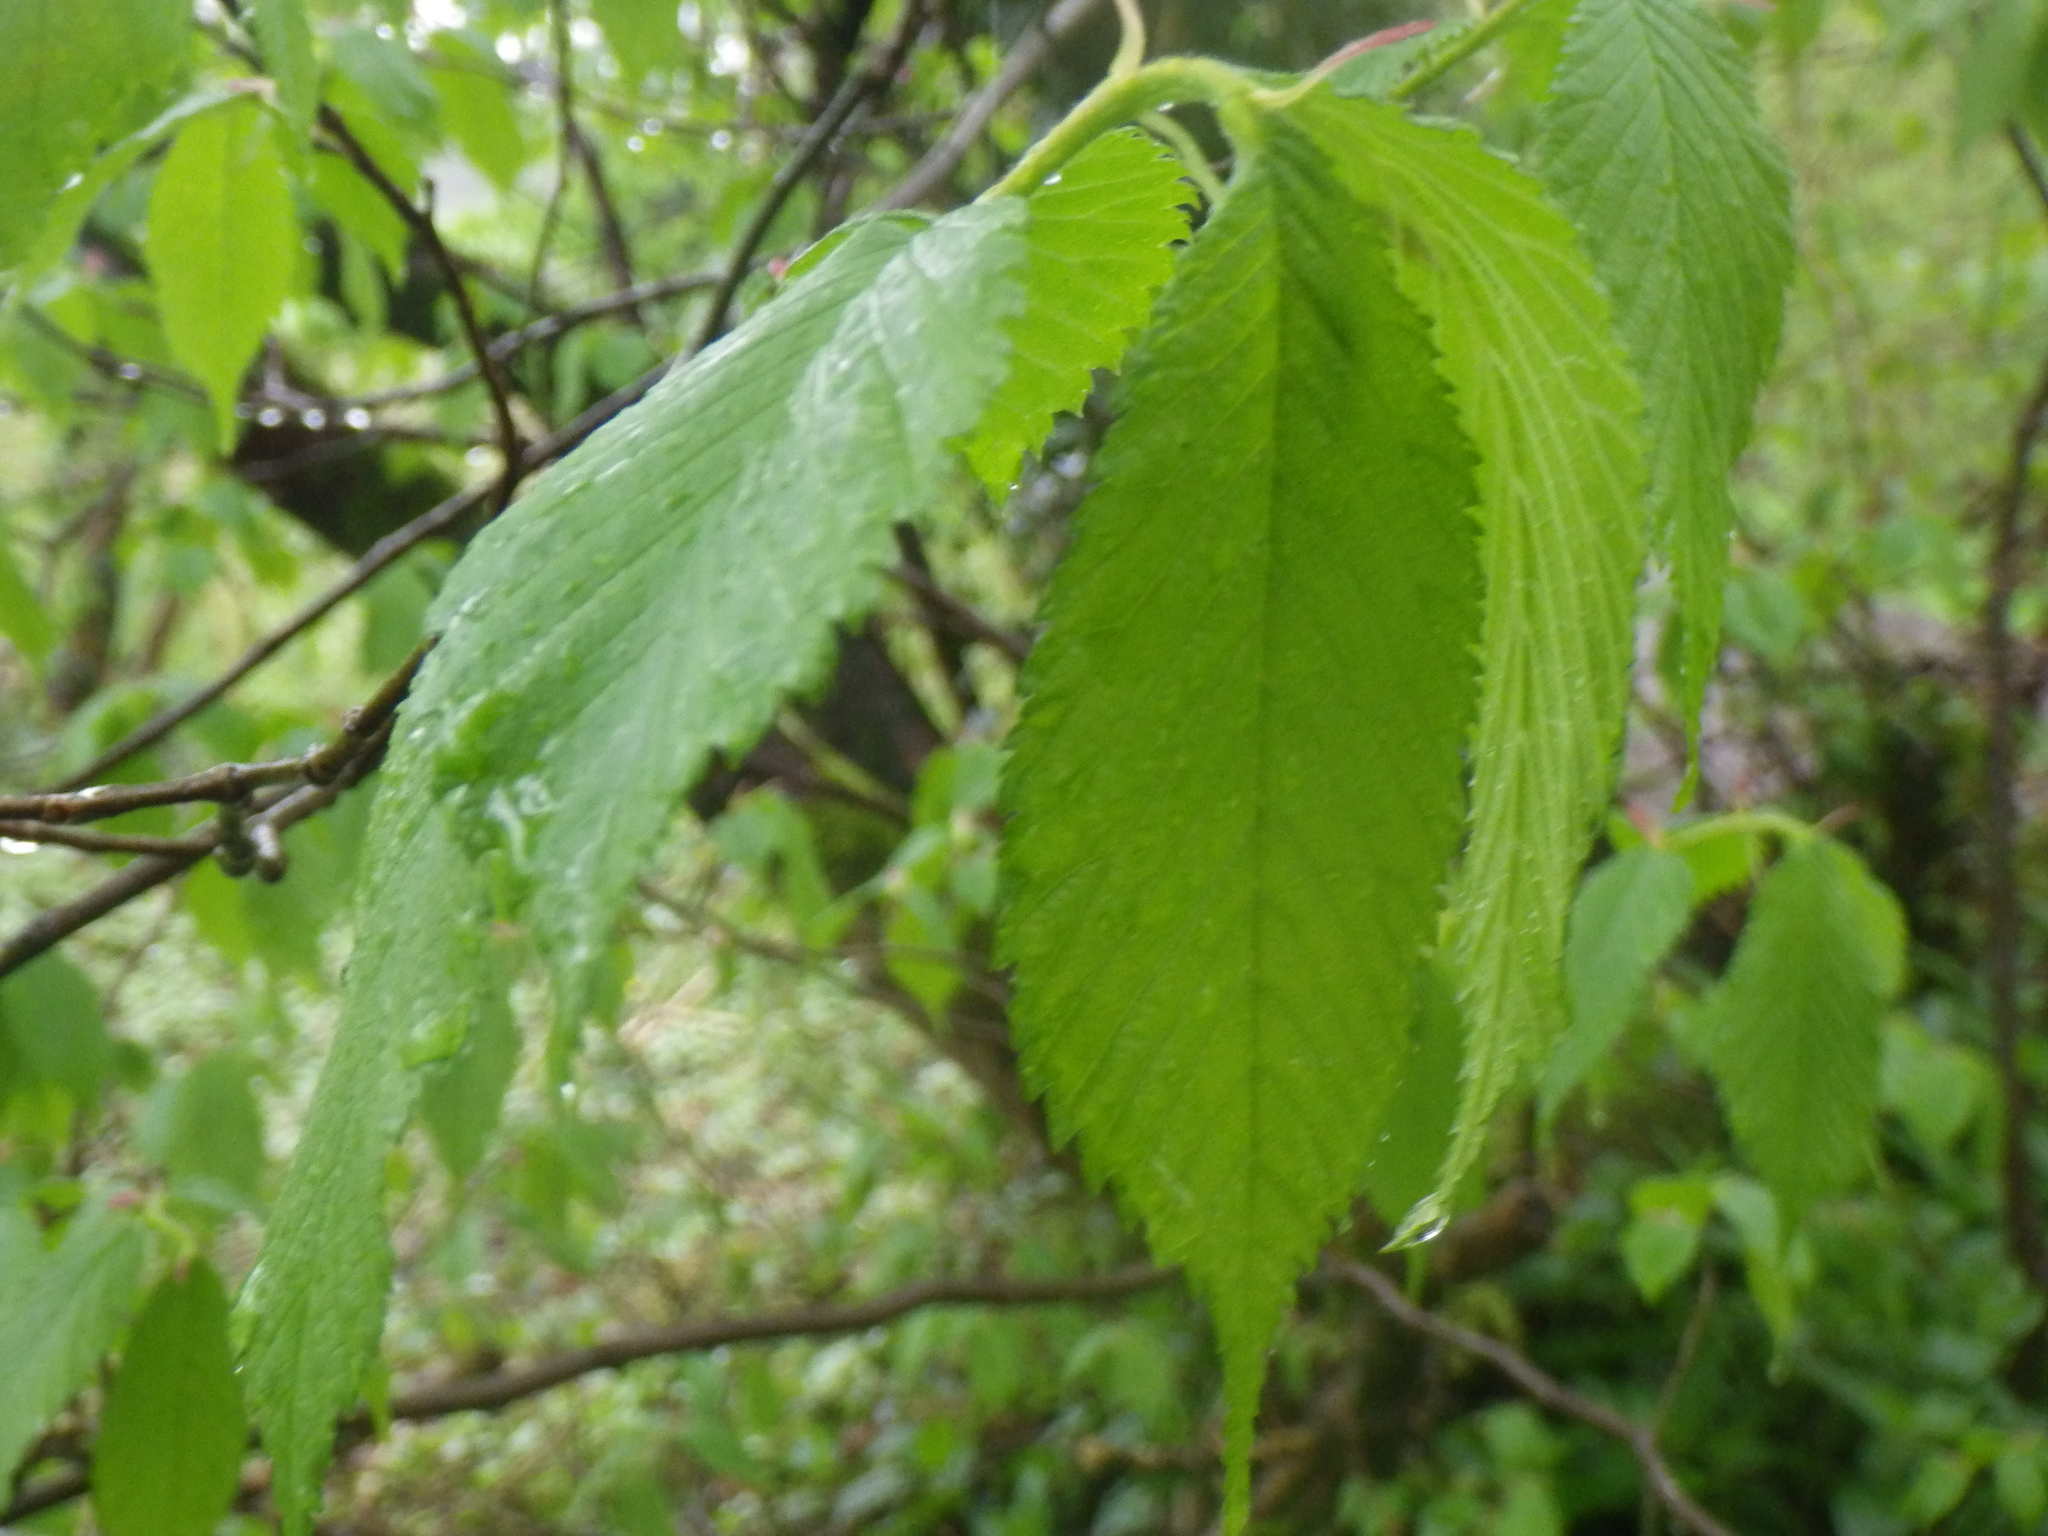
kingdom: Plantae
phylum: Tracheophyta
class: Magnoliopsida
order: Rosales
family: Ulmaceae
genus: Ulmus
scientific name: Ulmus glabra
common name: Wych elm
